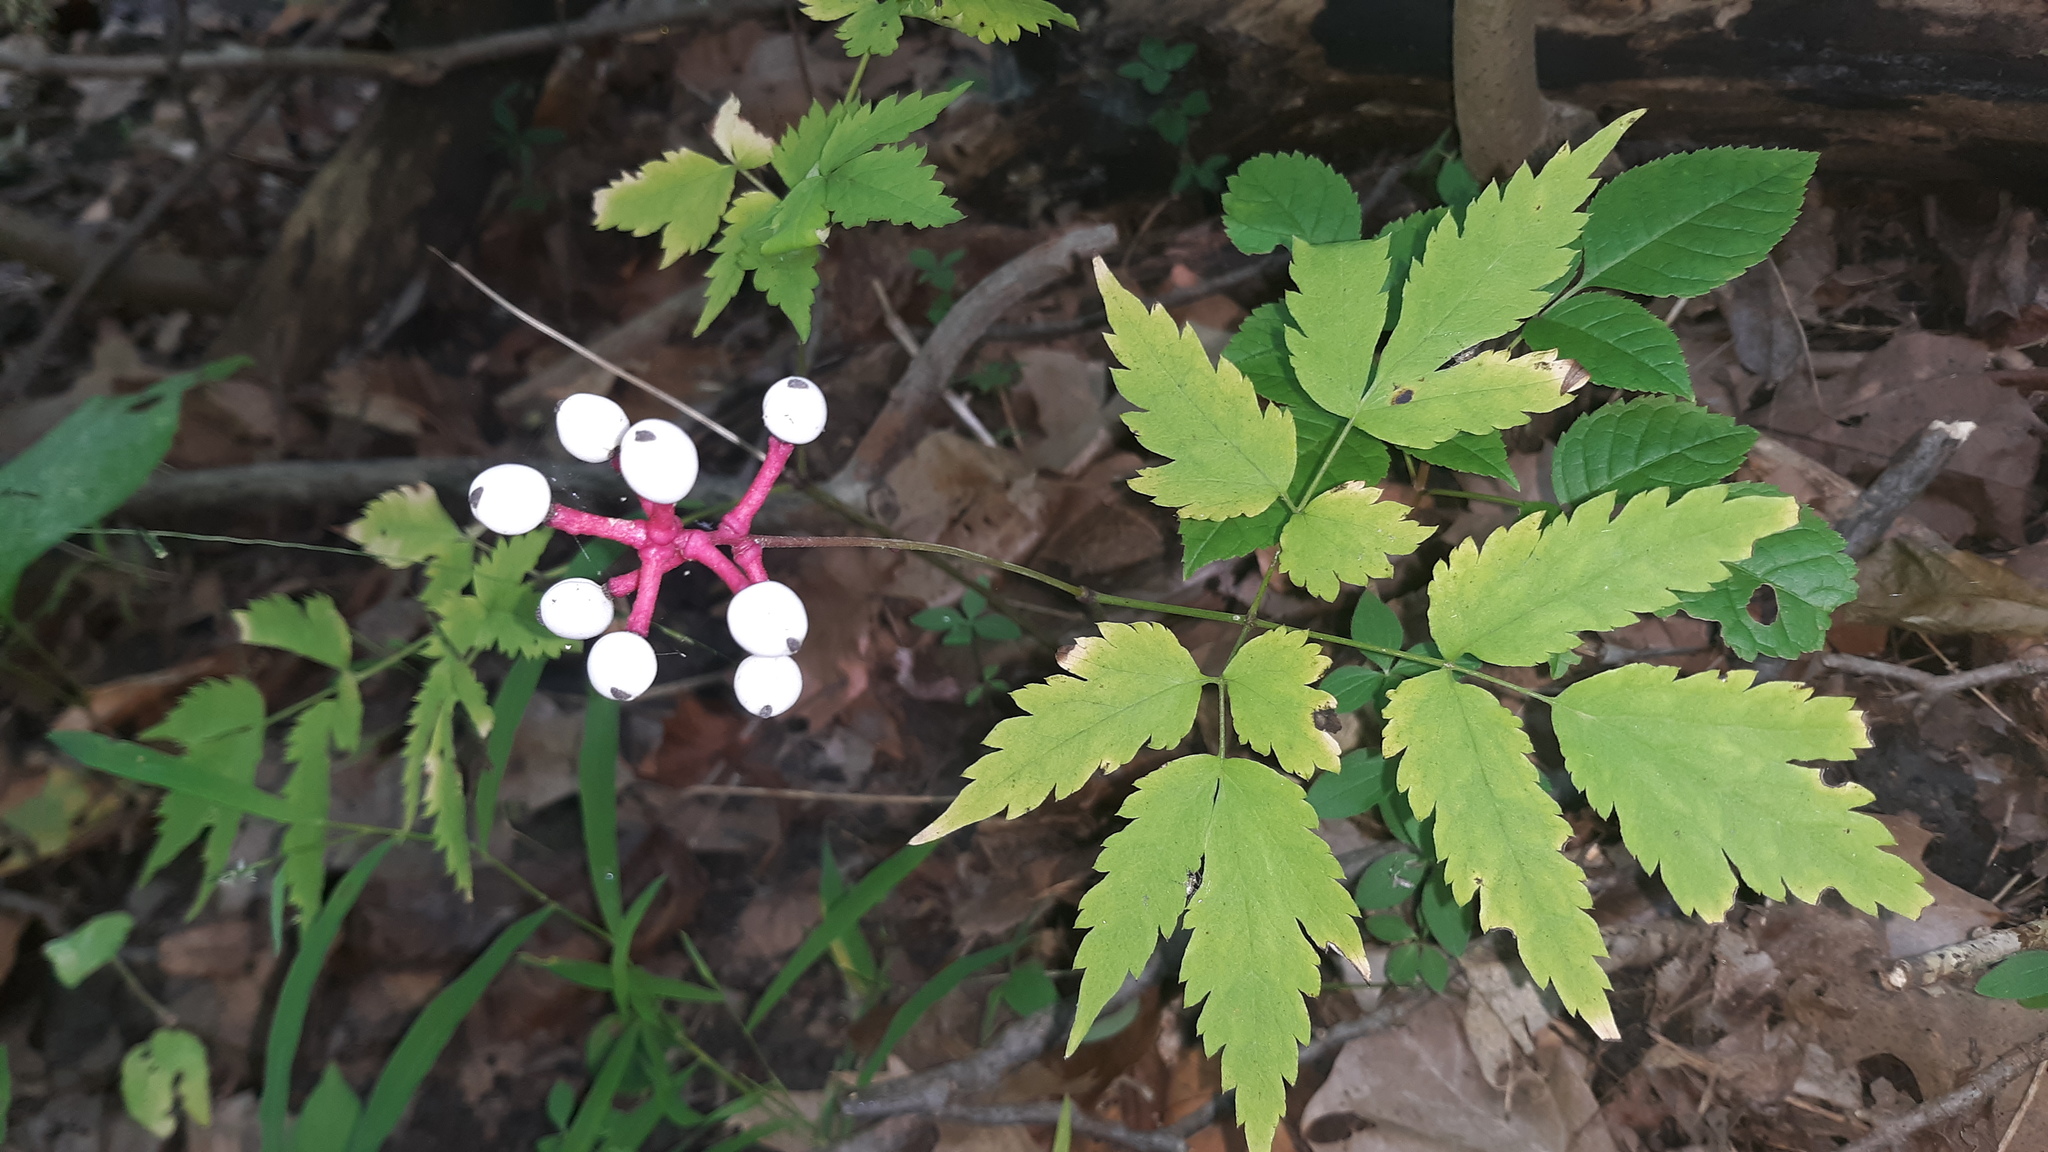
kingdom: Plantae
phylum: Tracheophyta
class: Magnoliopsida
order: Ranunculales
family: Ranunculaceae
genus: Actaea
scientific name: Actaea pachypoda
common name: Doll's-eyes
